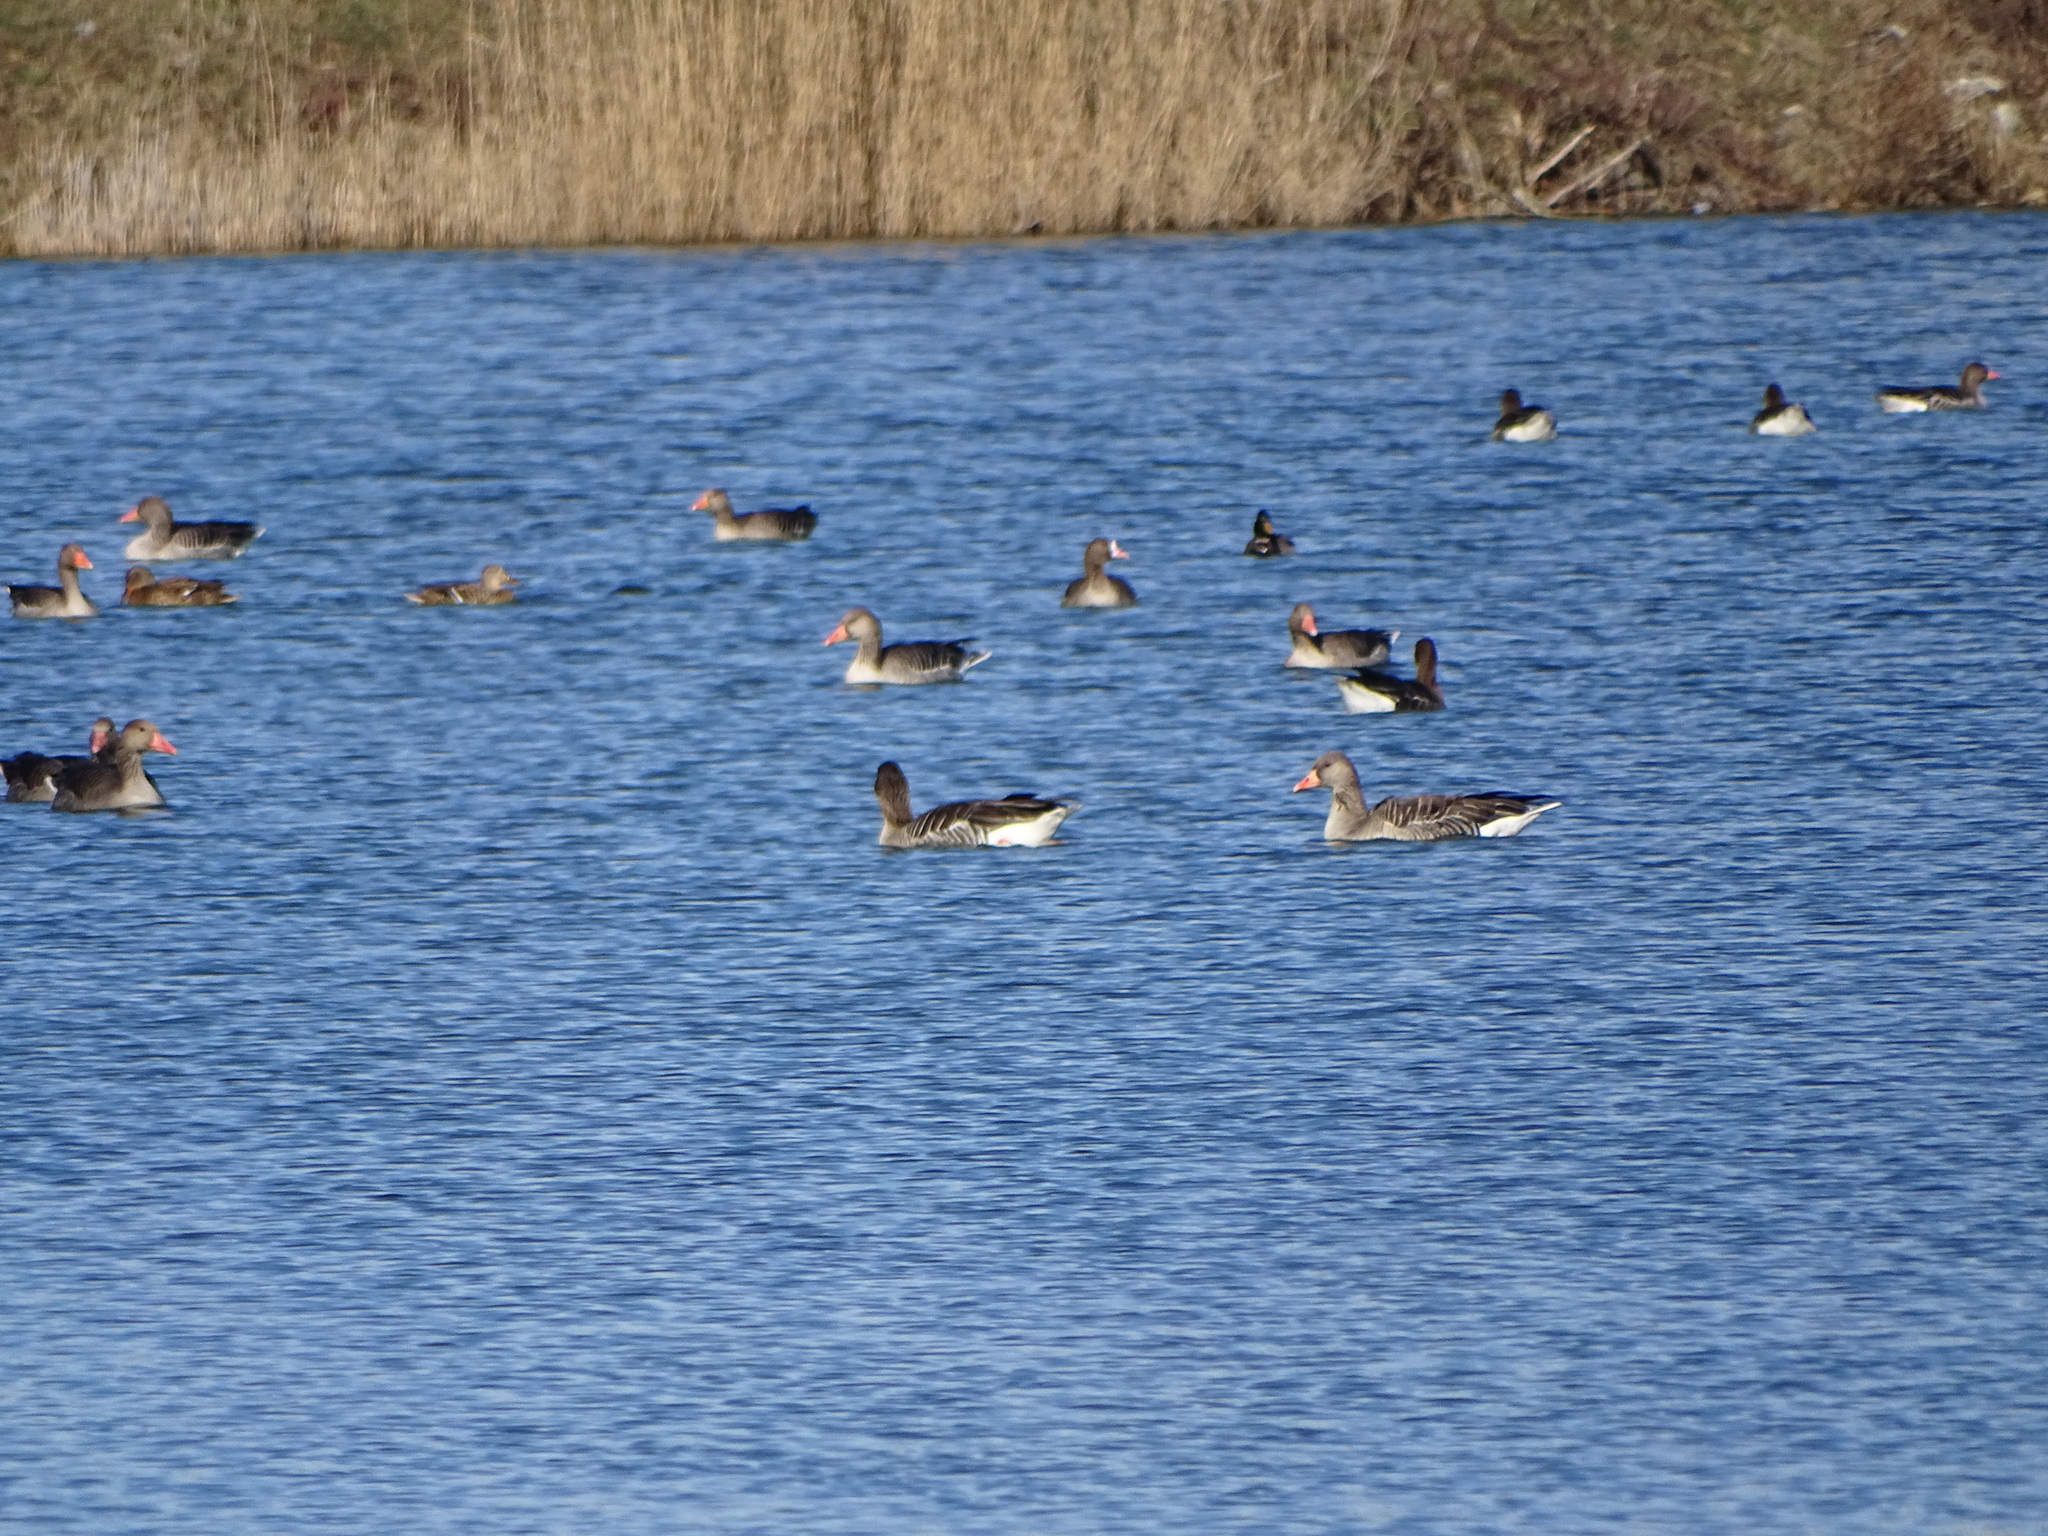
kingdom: Animalia
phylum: Chordata
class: Aves
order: Anseriformes
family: Anatidae
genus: Anser
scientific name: Anser anser
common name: Greylag goose
